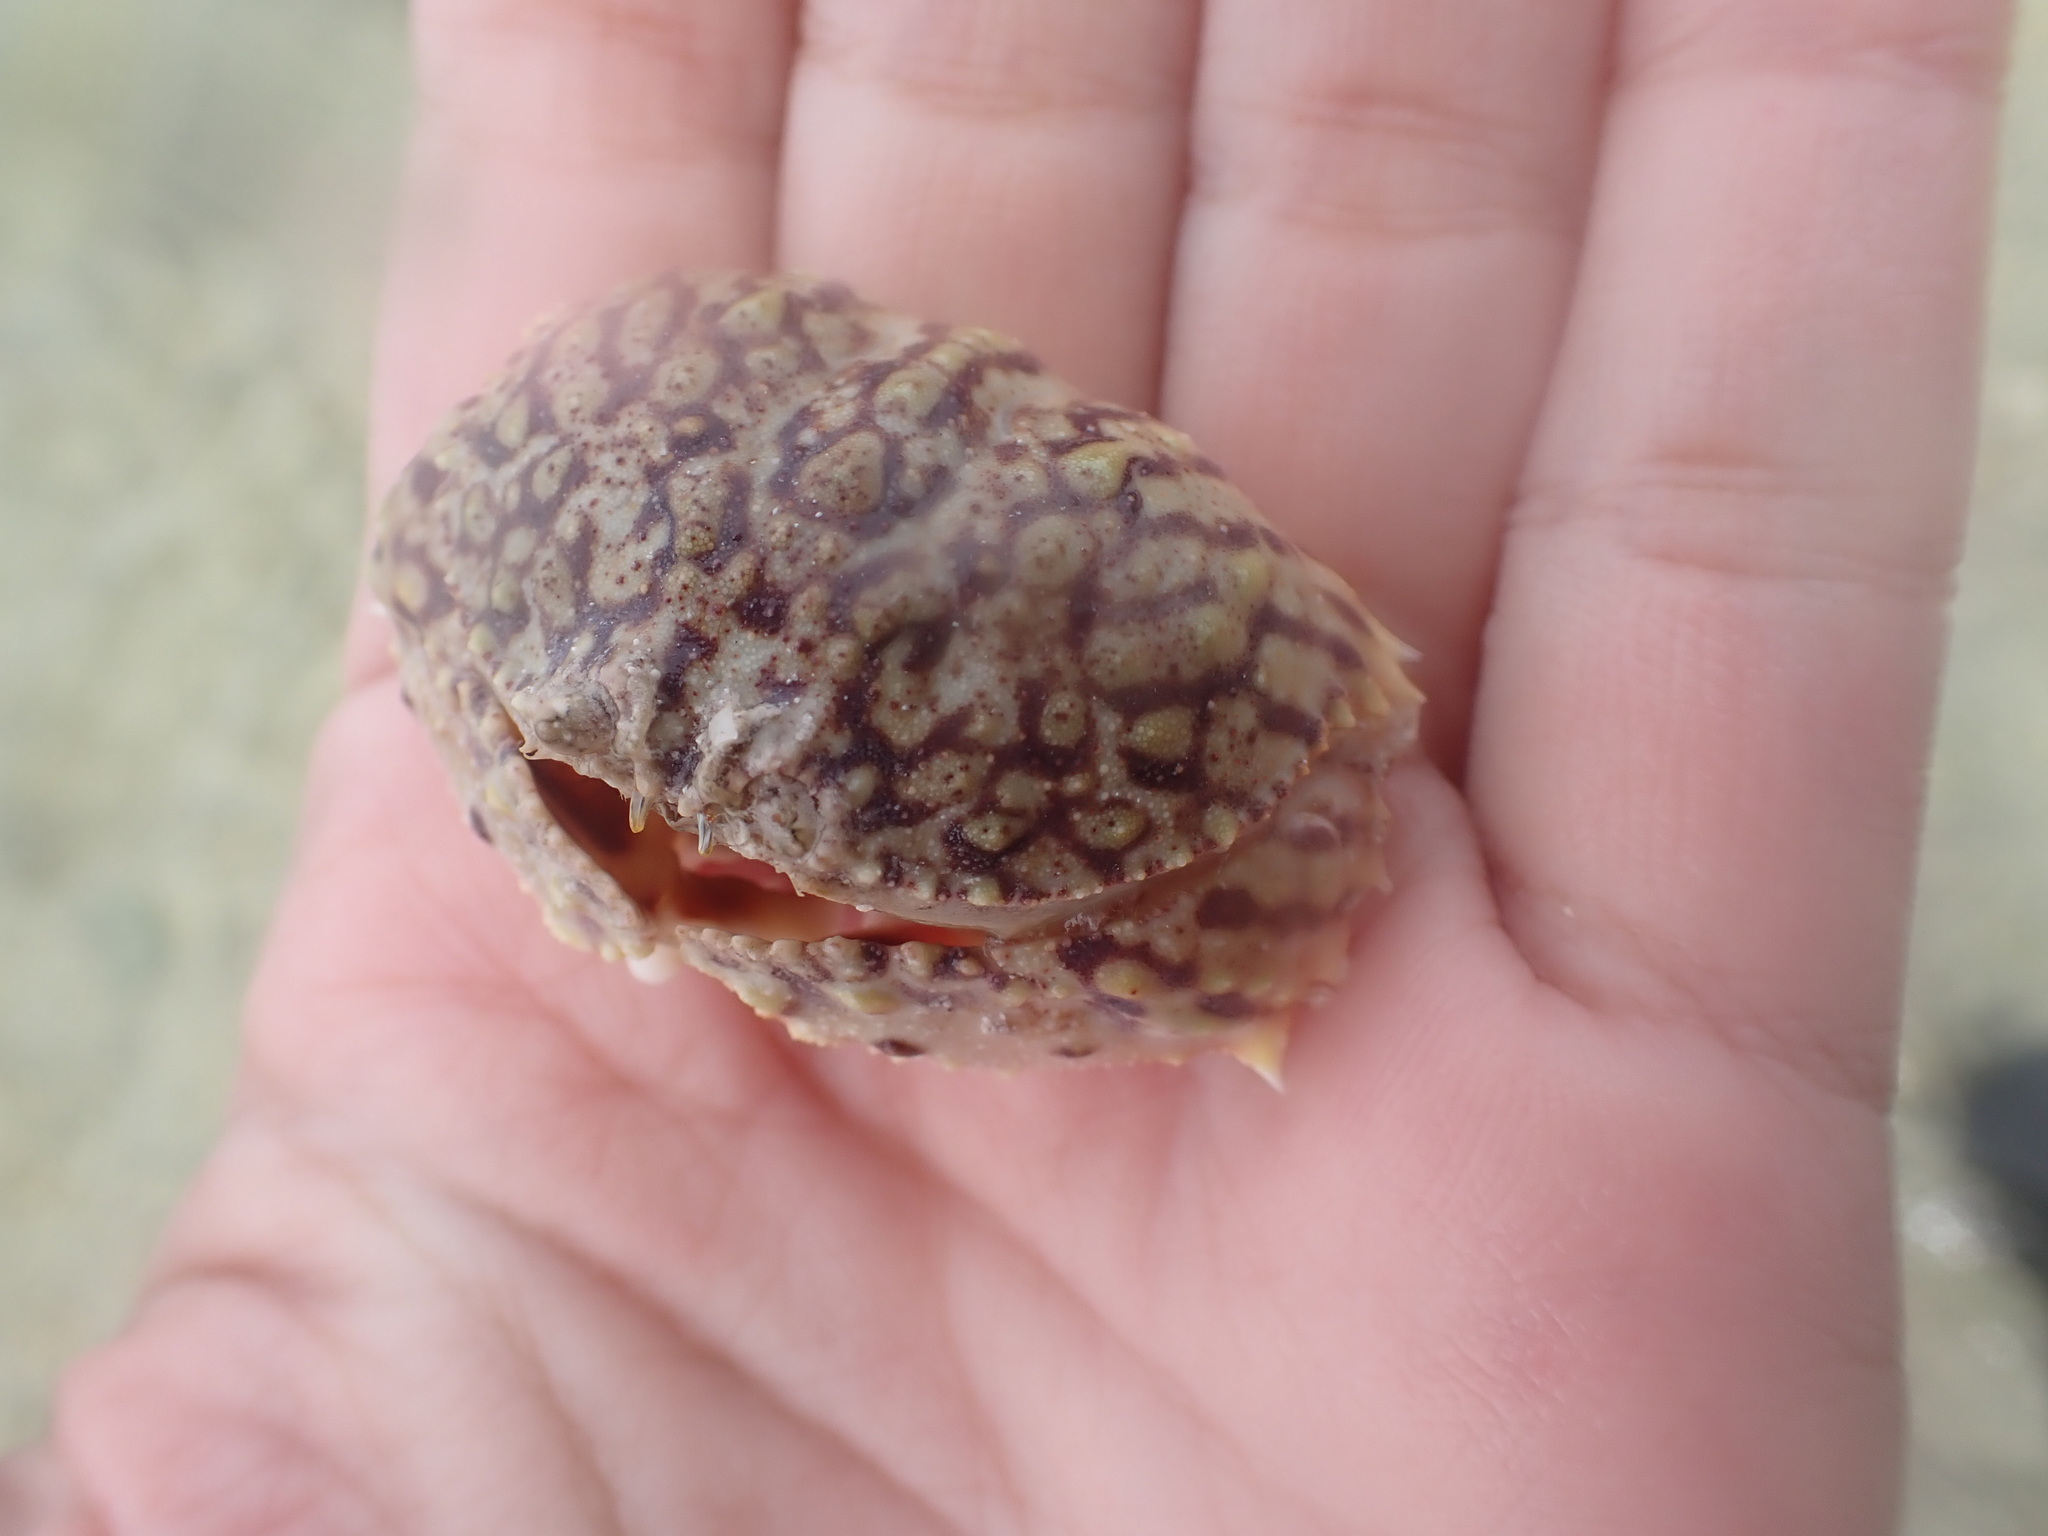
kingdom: Animalia
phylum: Arthropoda
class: Malacostraca
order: Decapoda
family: Calappidae
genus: Calappa
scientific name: Calappa flammea
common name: Flamed box crab
